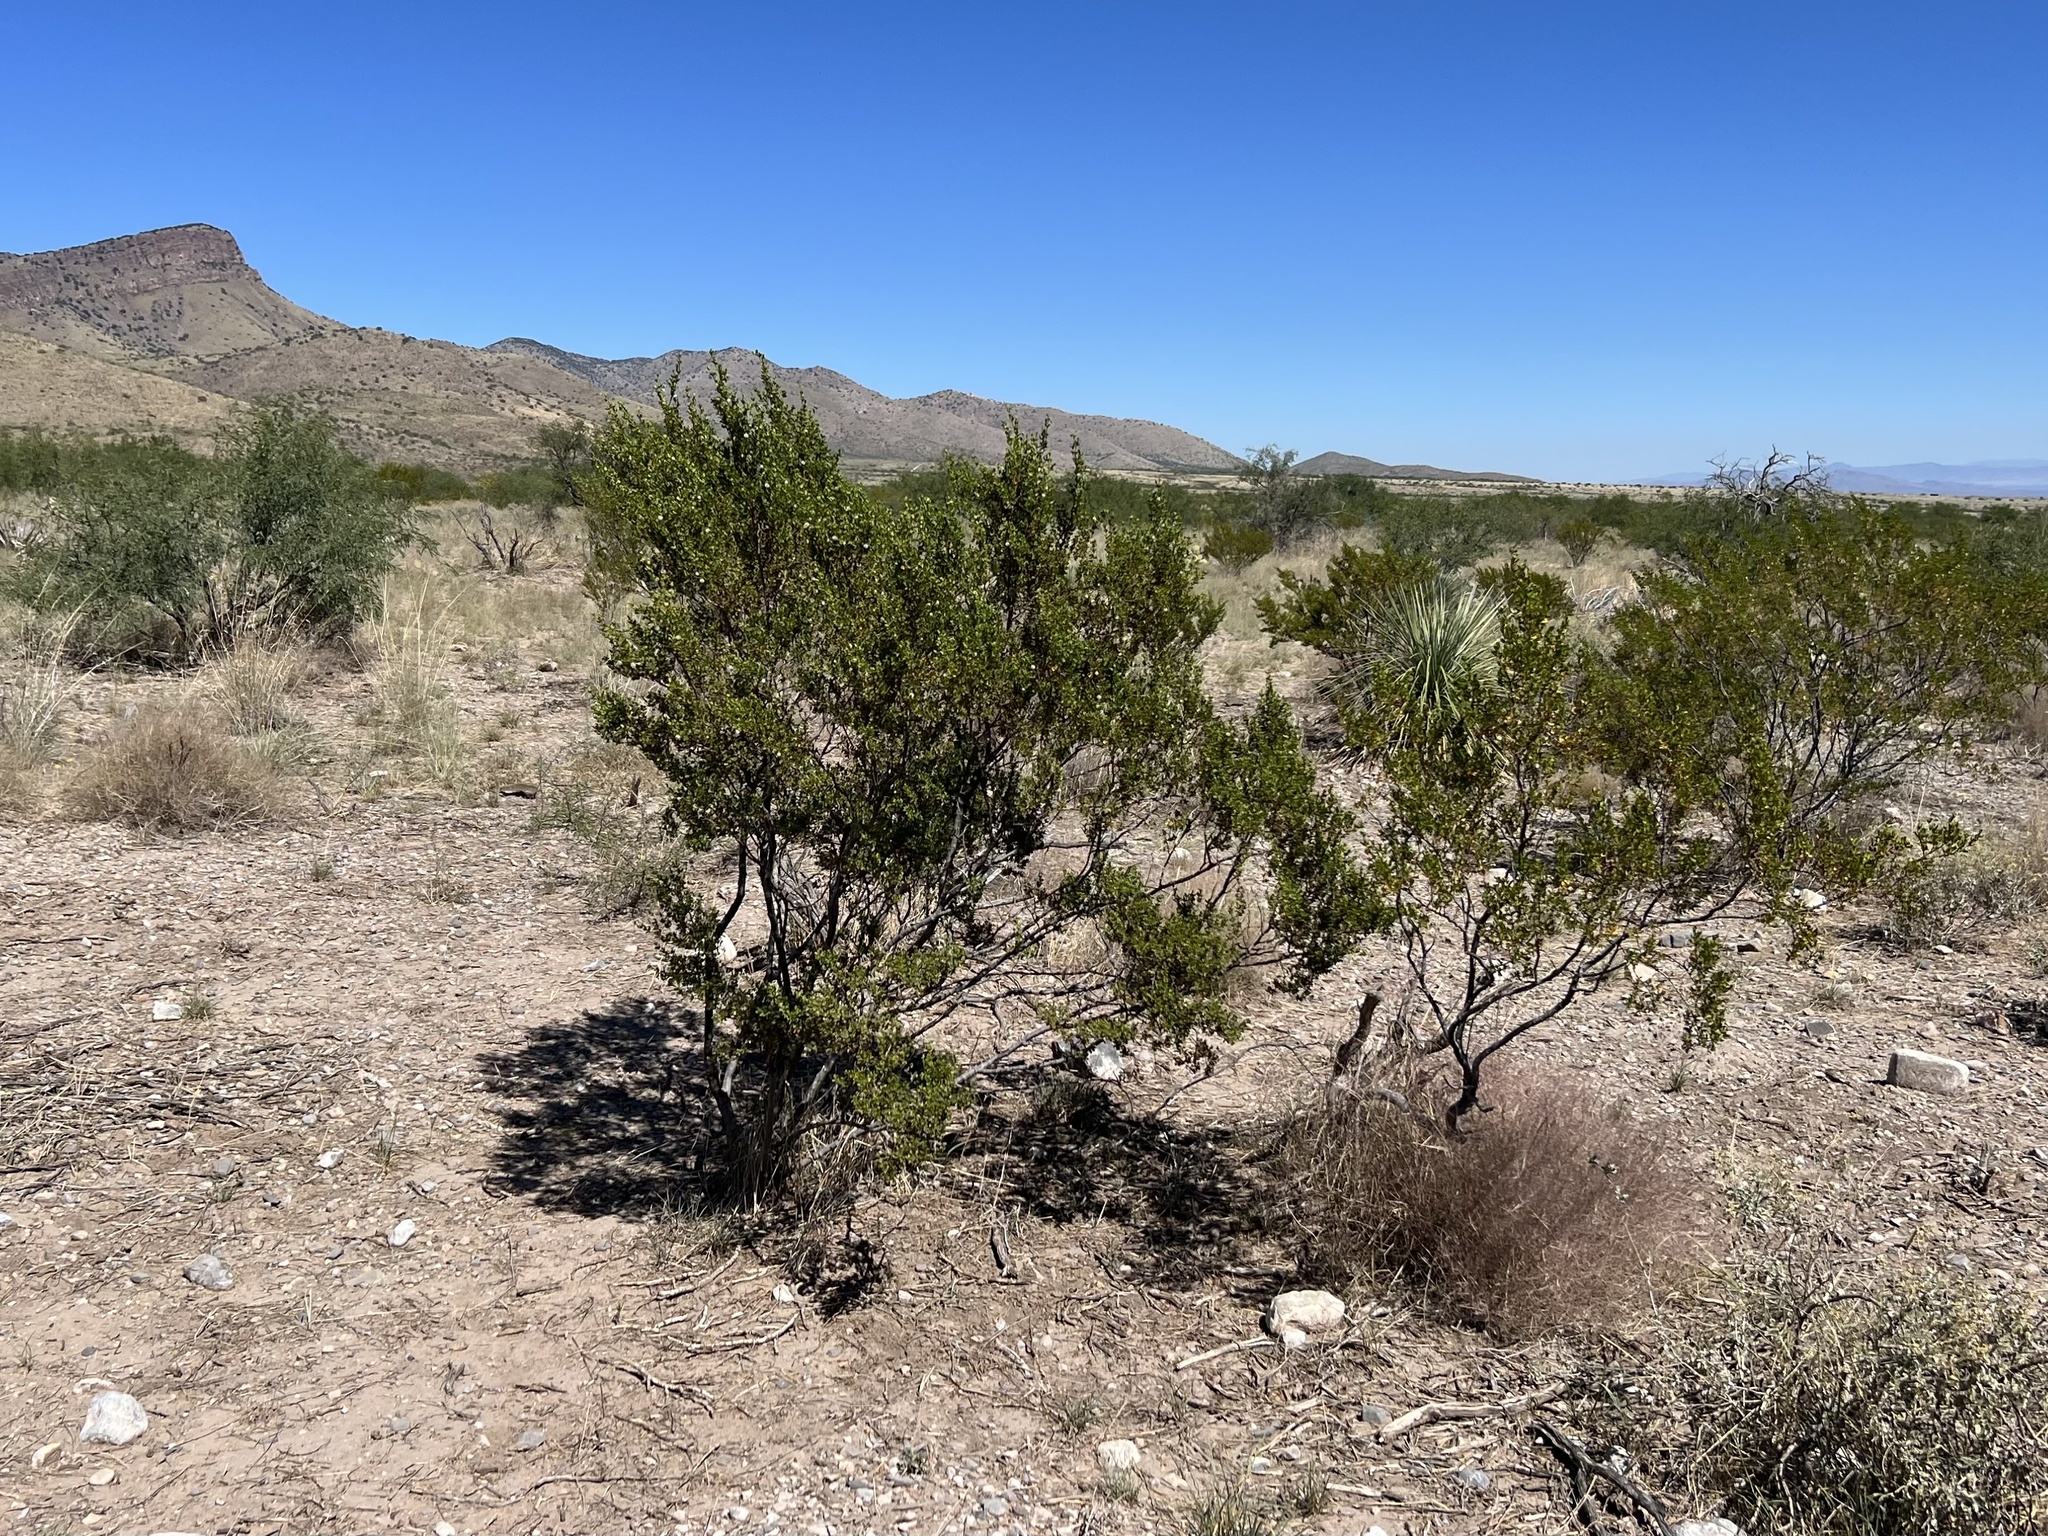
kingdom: Plantae
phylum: Tracheophyta
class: Magnoliopsida
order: Zygophyllales
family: Zygophyllaceae
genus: Larrea
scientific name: Larrea tridentata
